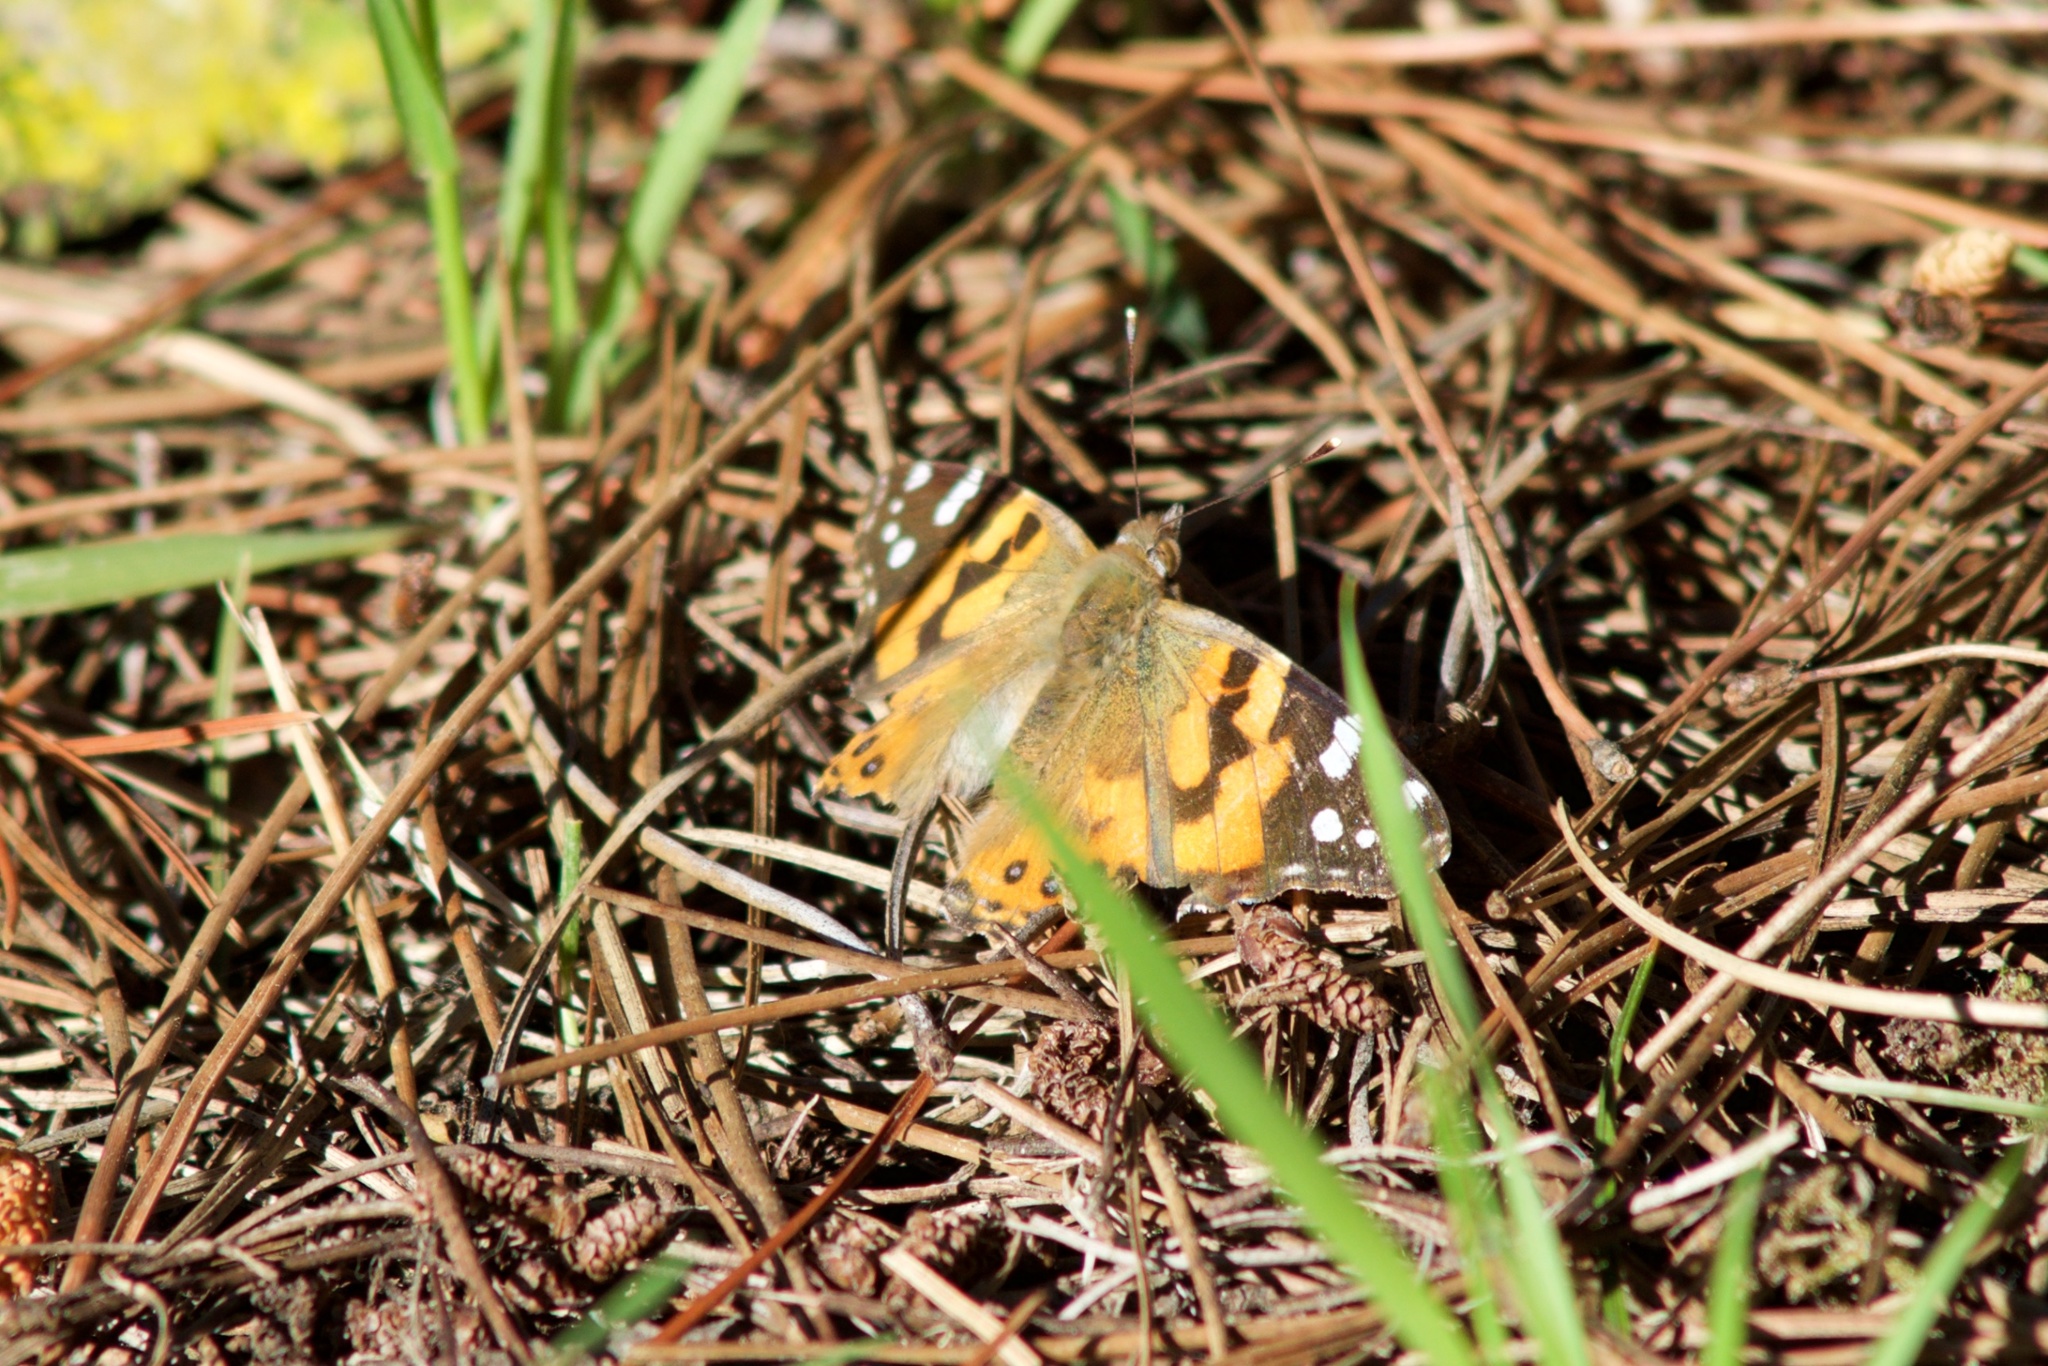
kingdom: Animalia
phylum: Arthropoda
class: Insecta
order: Lepidoptera
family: Nymphalidae
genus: Vanessa
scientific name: Vanessa kershawi
